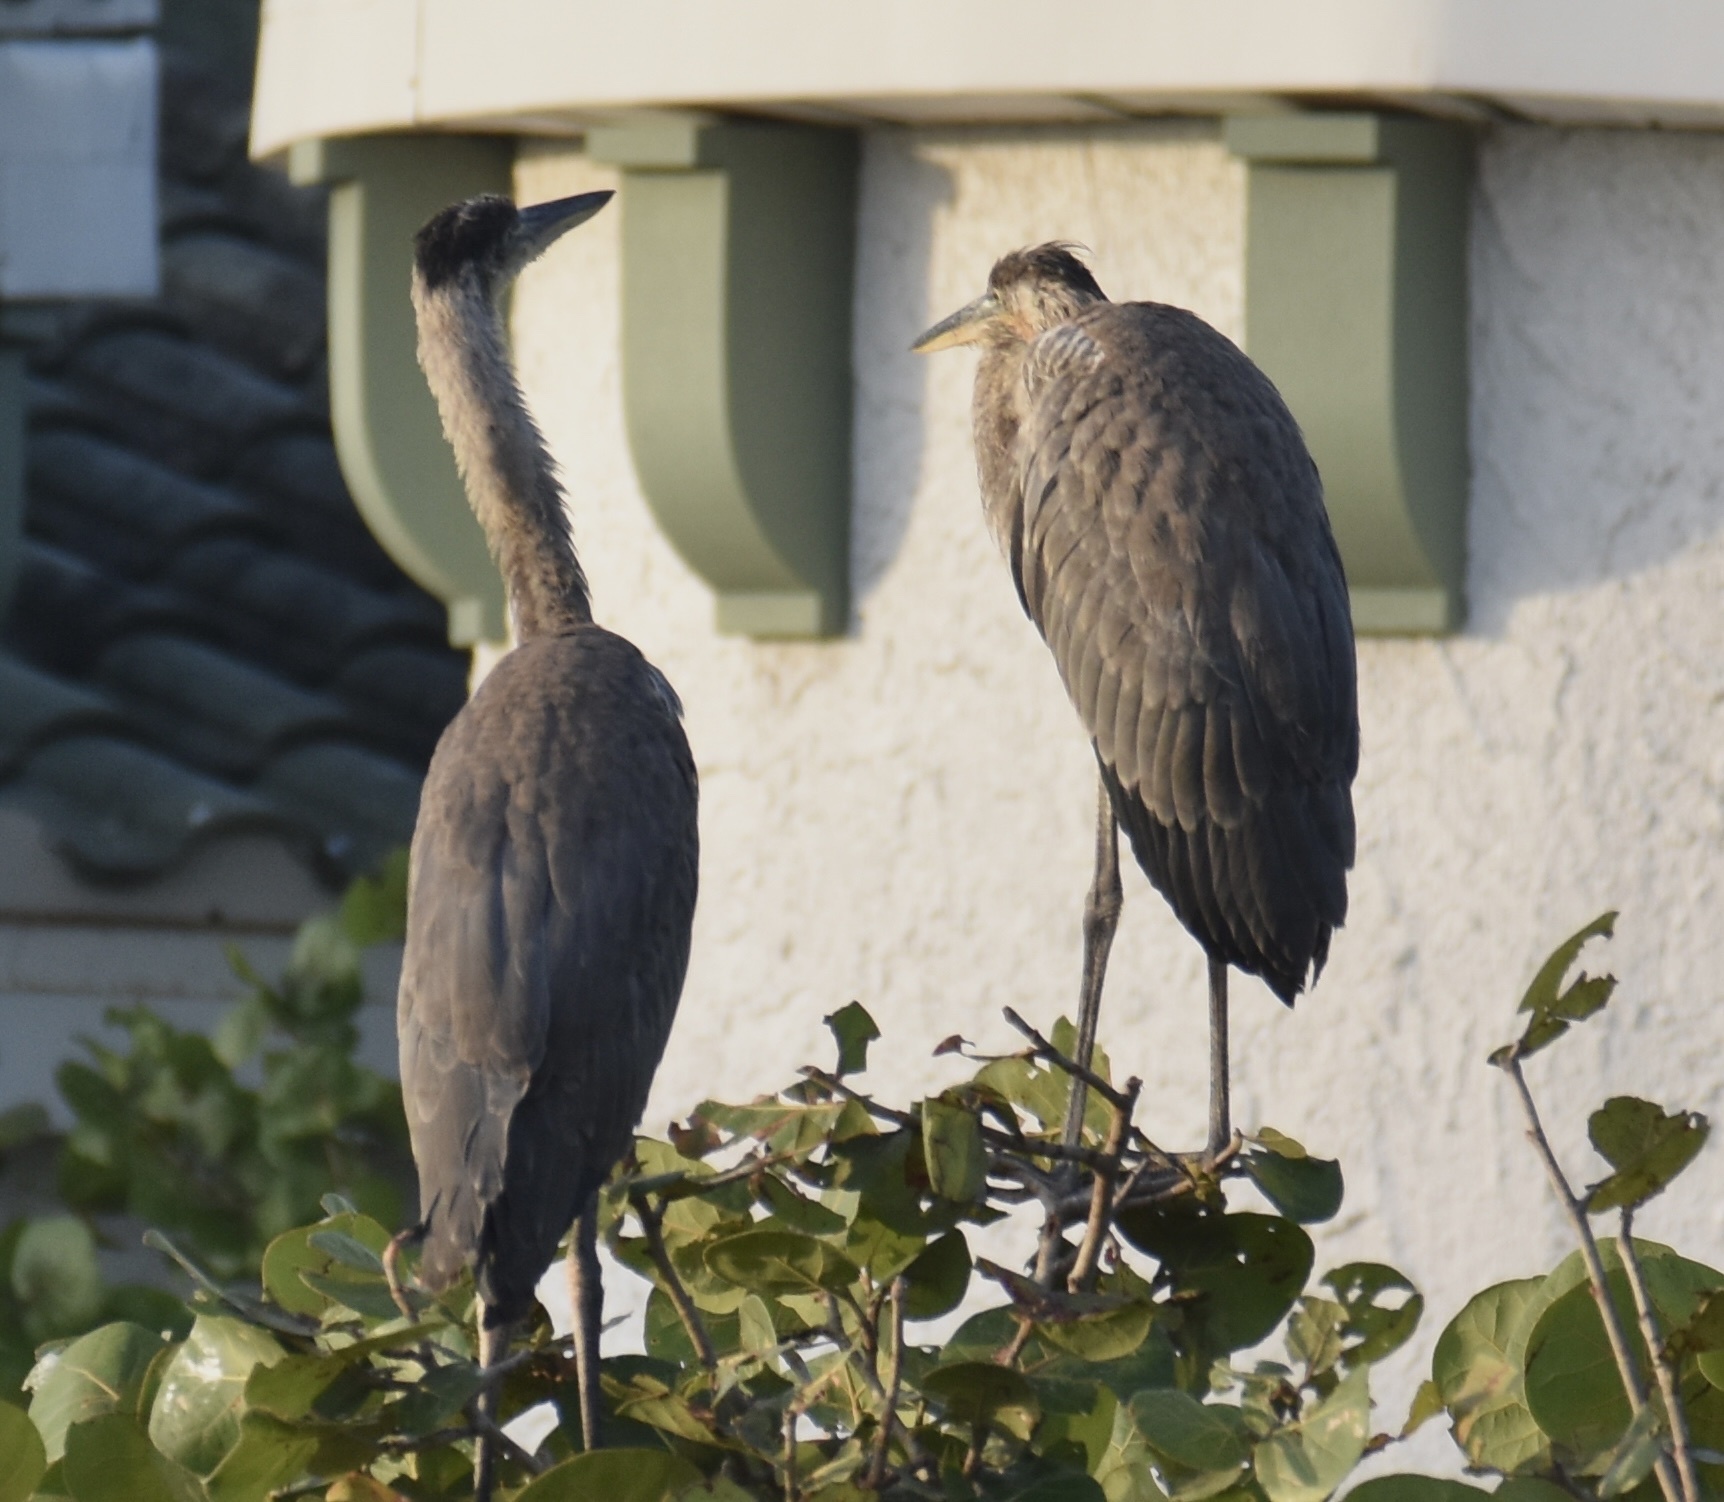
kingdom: Animalia
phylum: Chordata
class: Aves
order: Pelecaniformes
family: Ardeidae
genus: Ardea
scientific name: Ardea herodias
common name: Great blue heron
